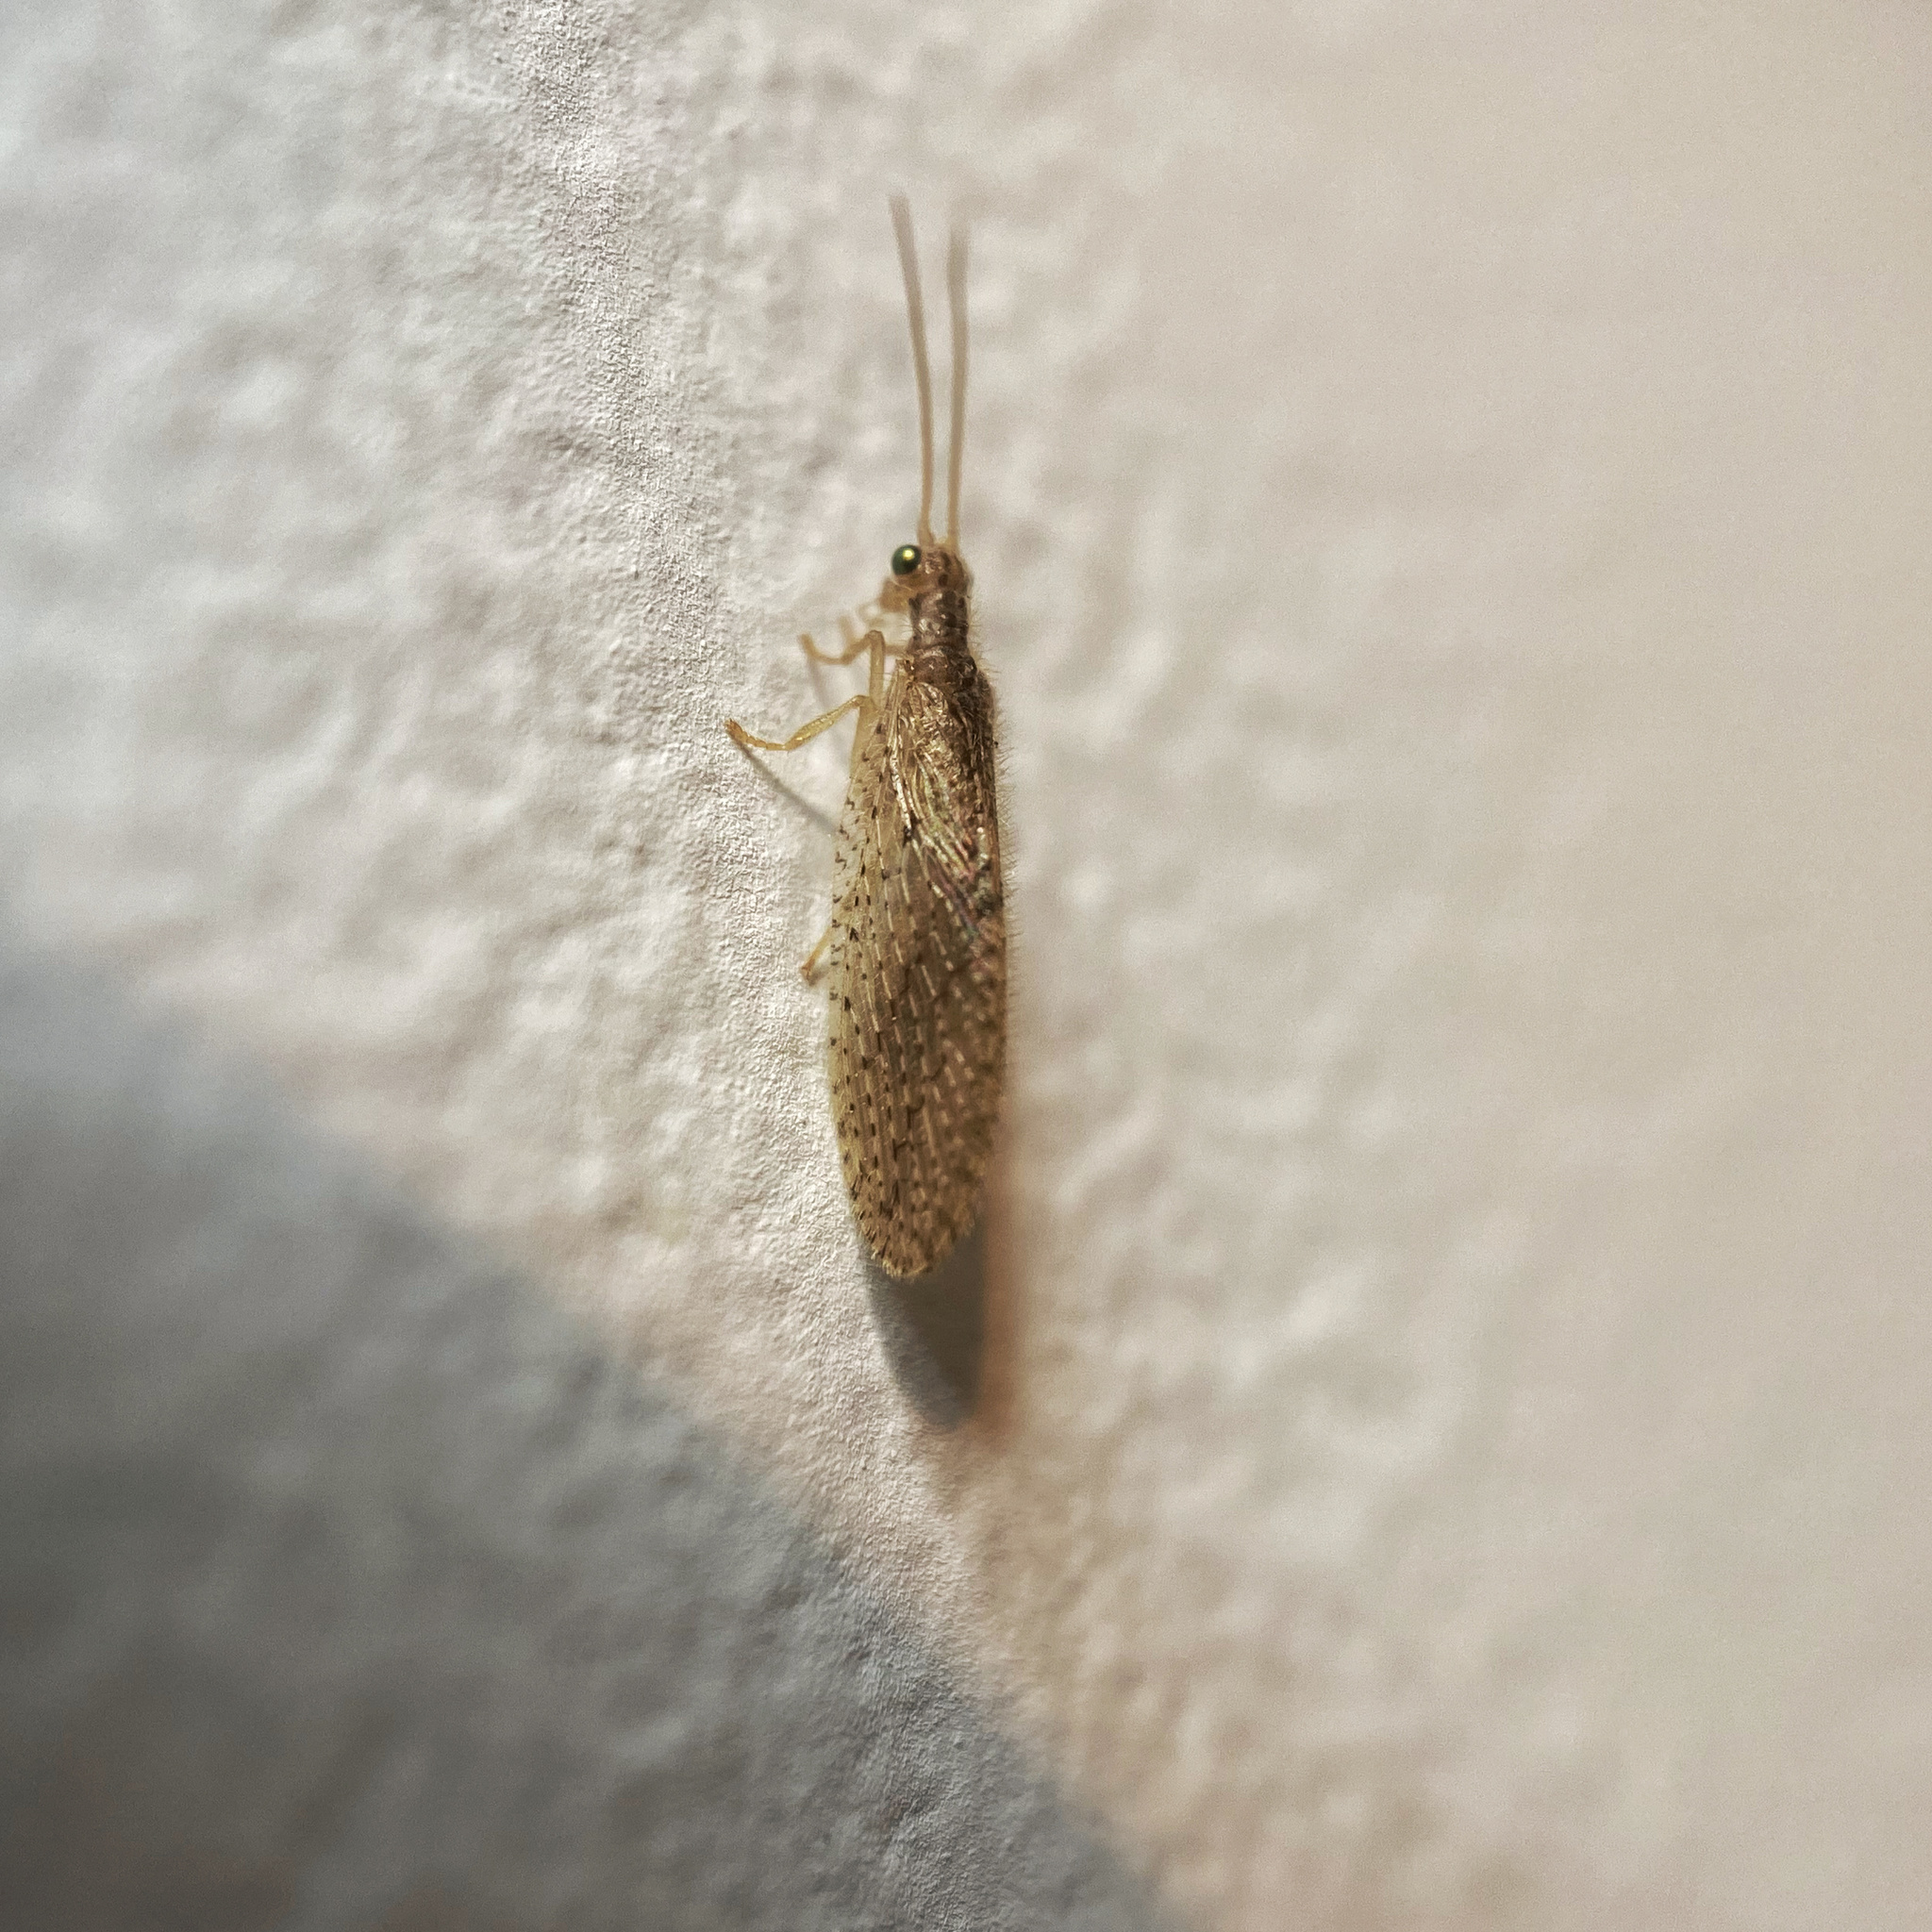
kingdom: Animalia
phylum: Arthropoda
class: Insecta
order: Neuroptera
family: Hemerobiidae
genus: Micromus
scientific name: Micromus tasmaniae
